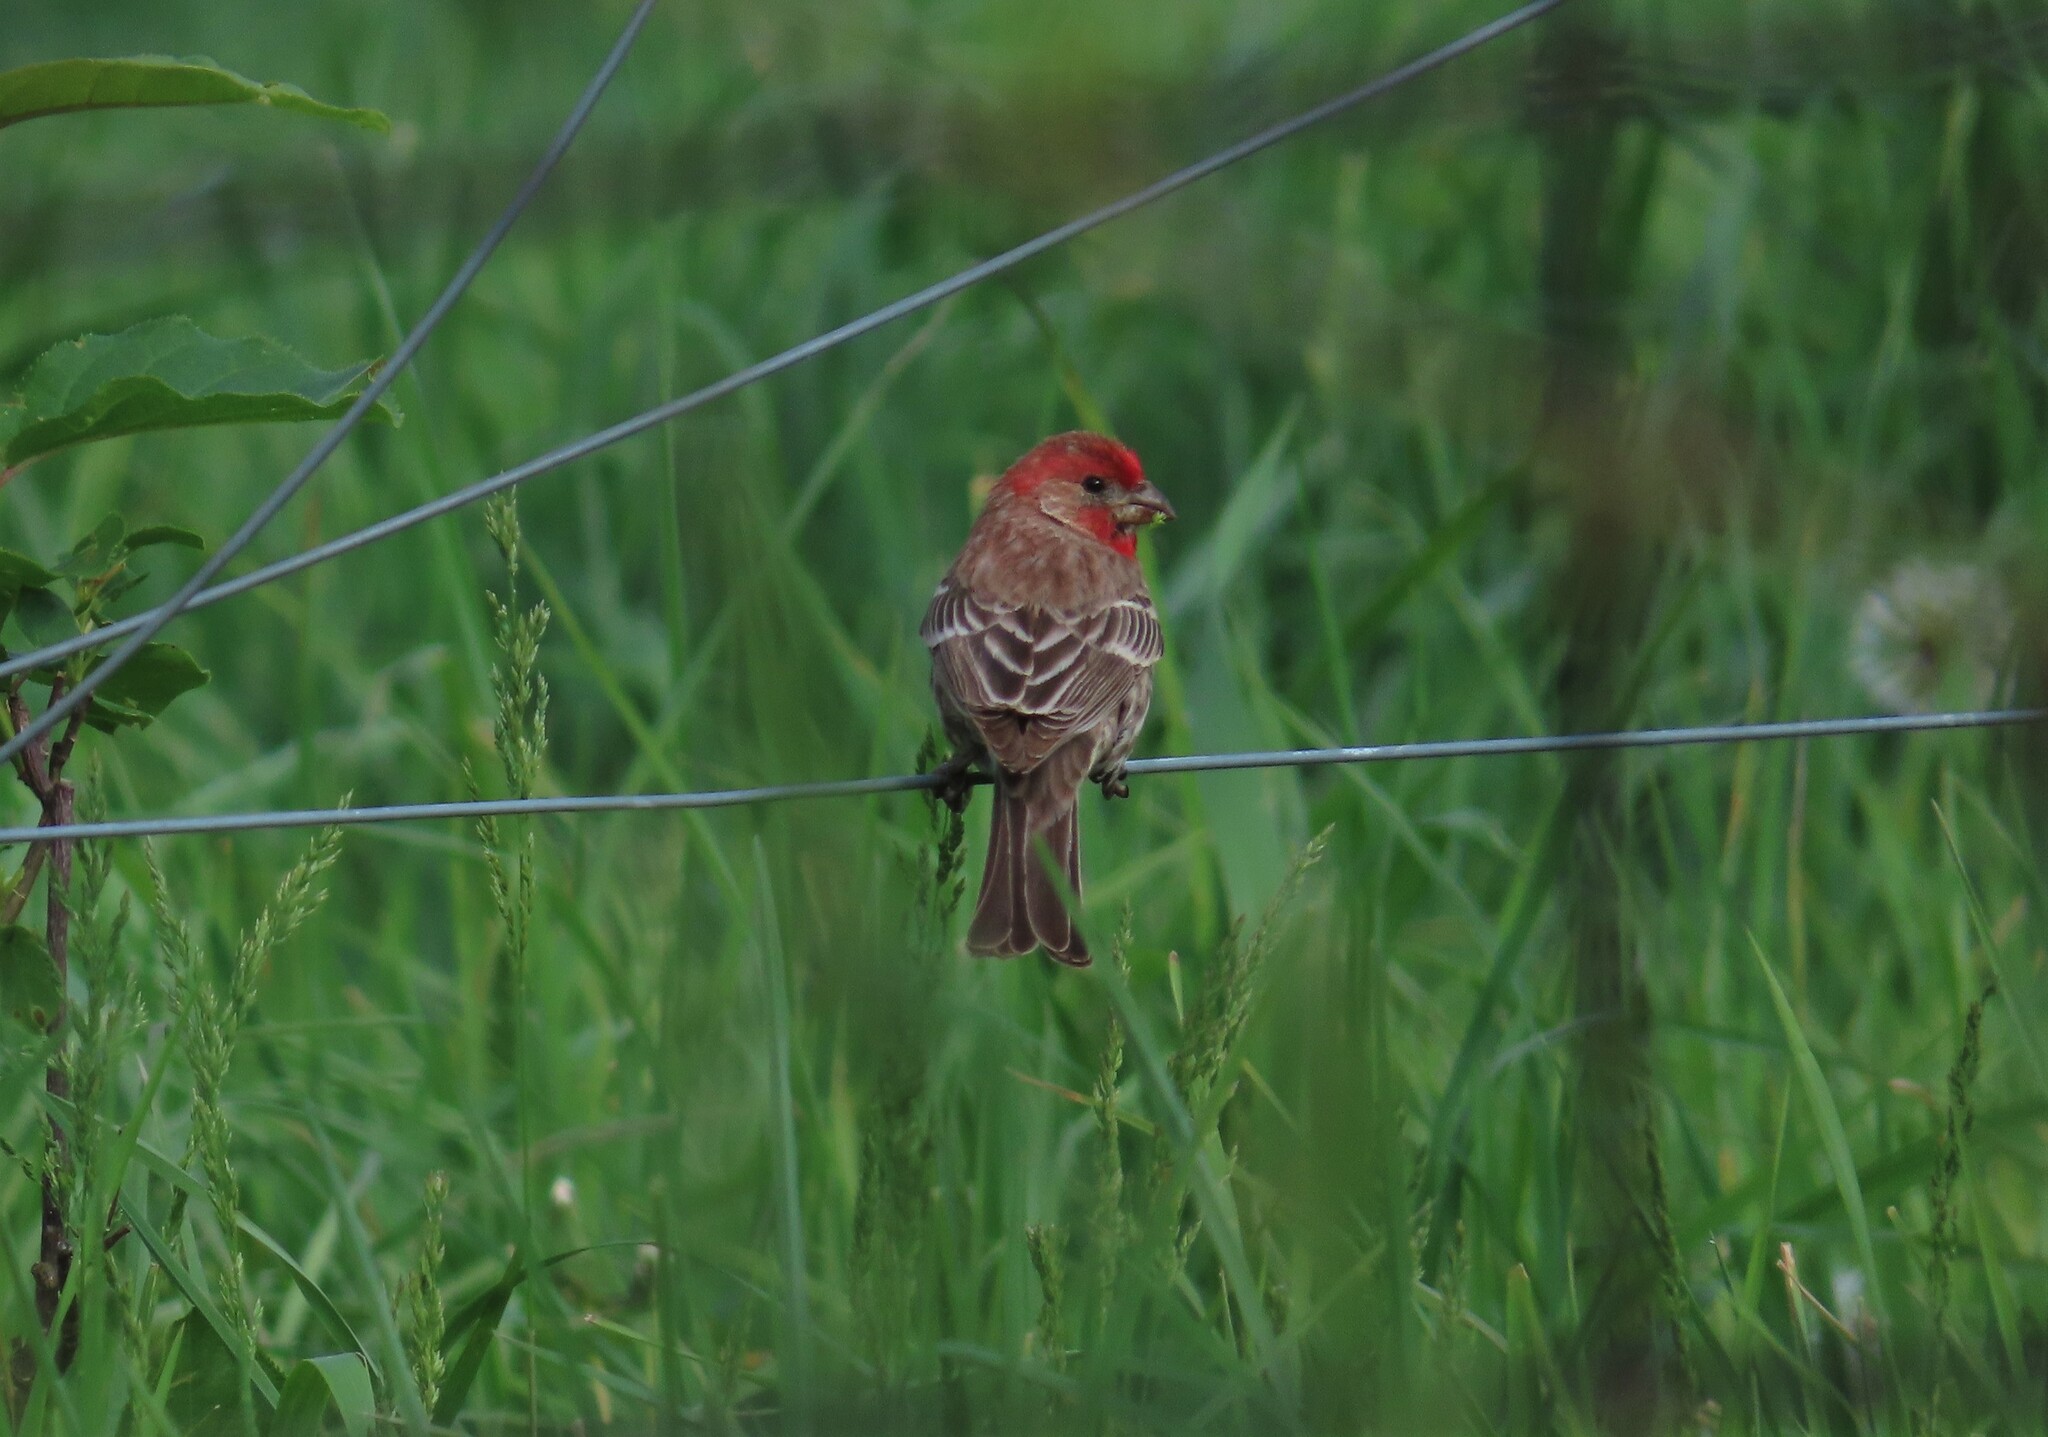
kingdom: Animalia
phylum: Chordata
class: Aves
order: Passeriformes
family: Fringillidae
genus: Haemorhous
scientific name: Haemorhous mexicanus
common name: House finch
